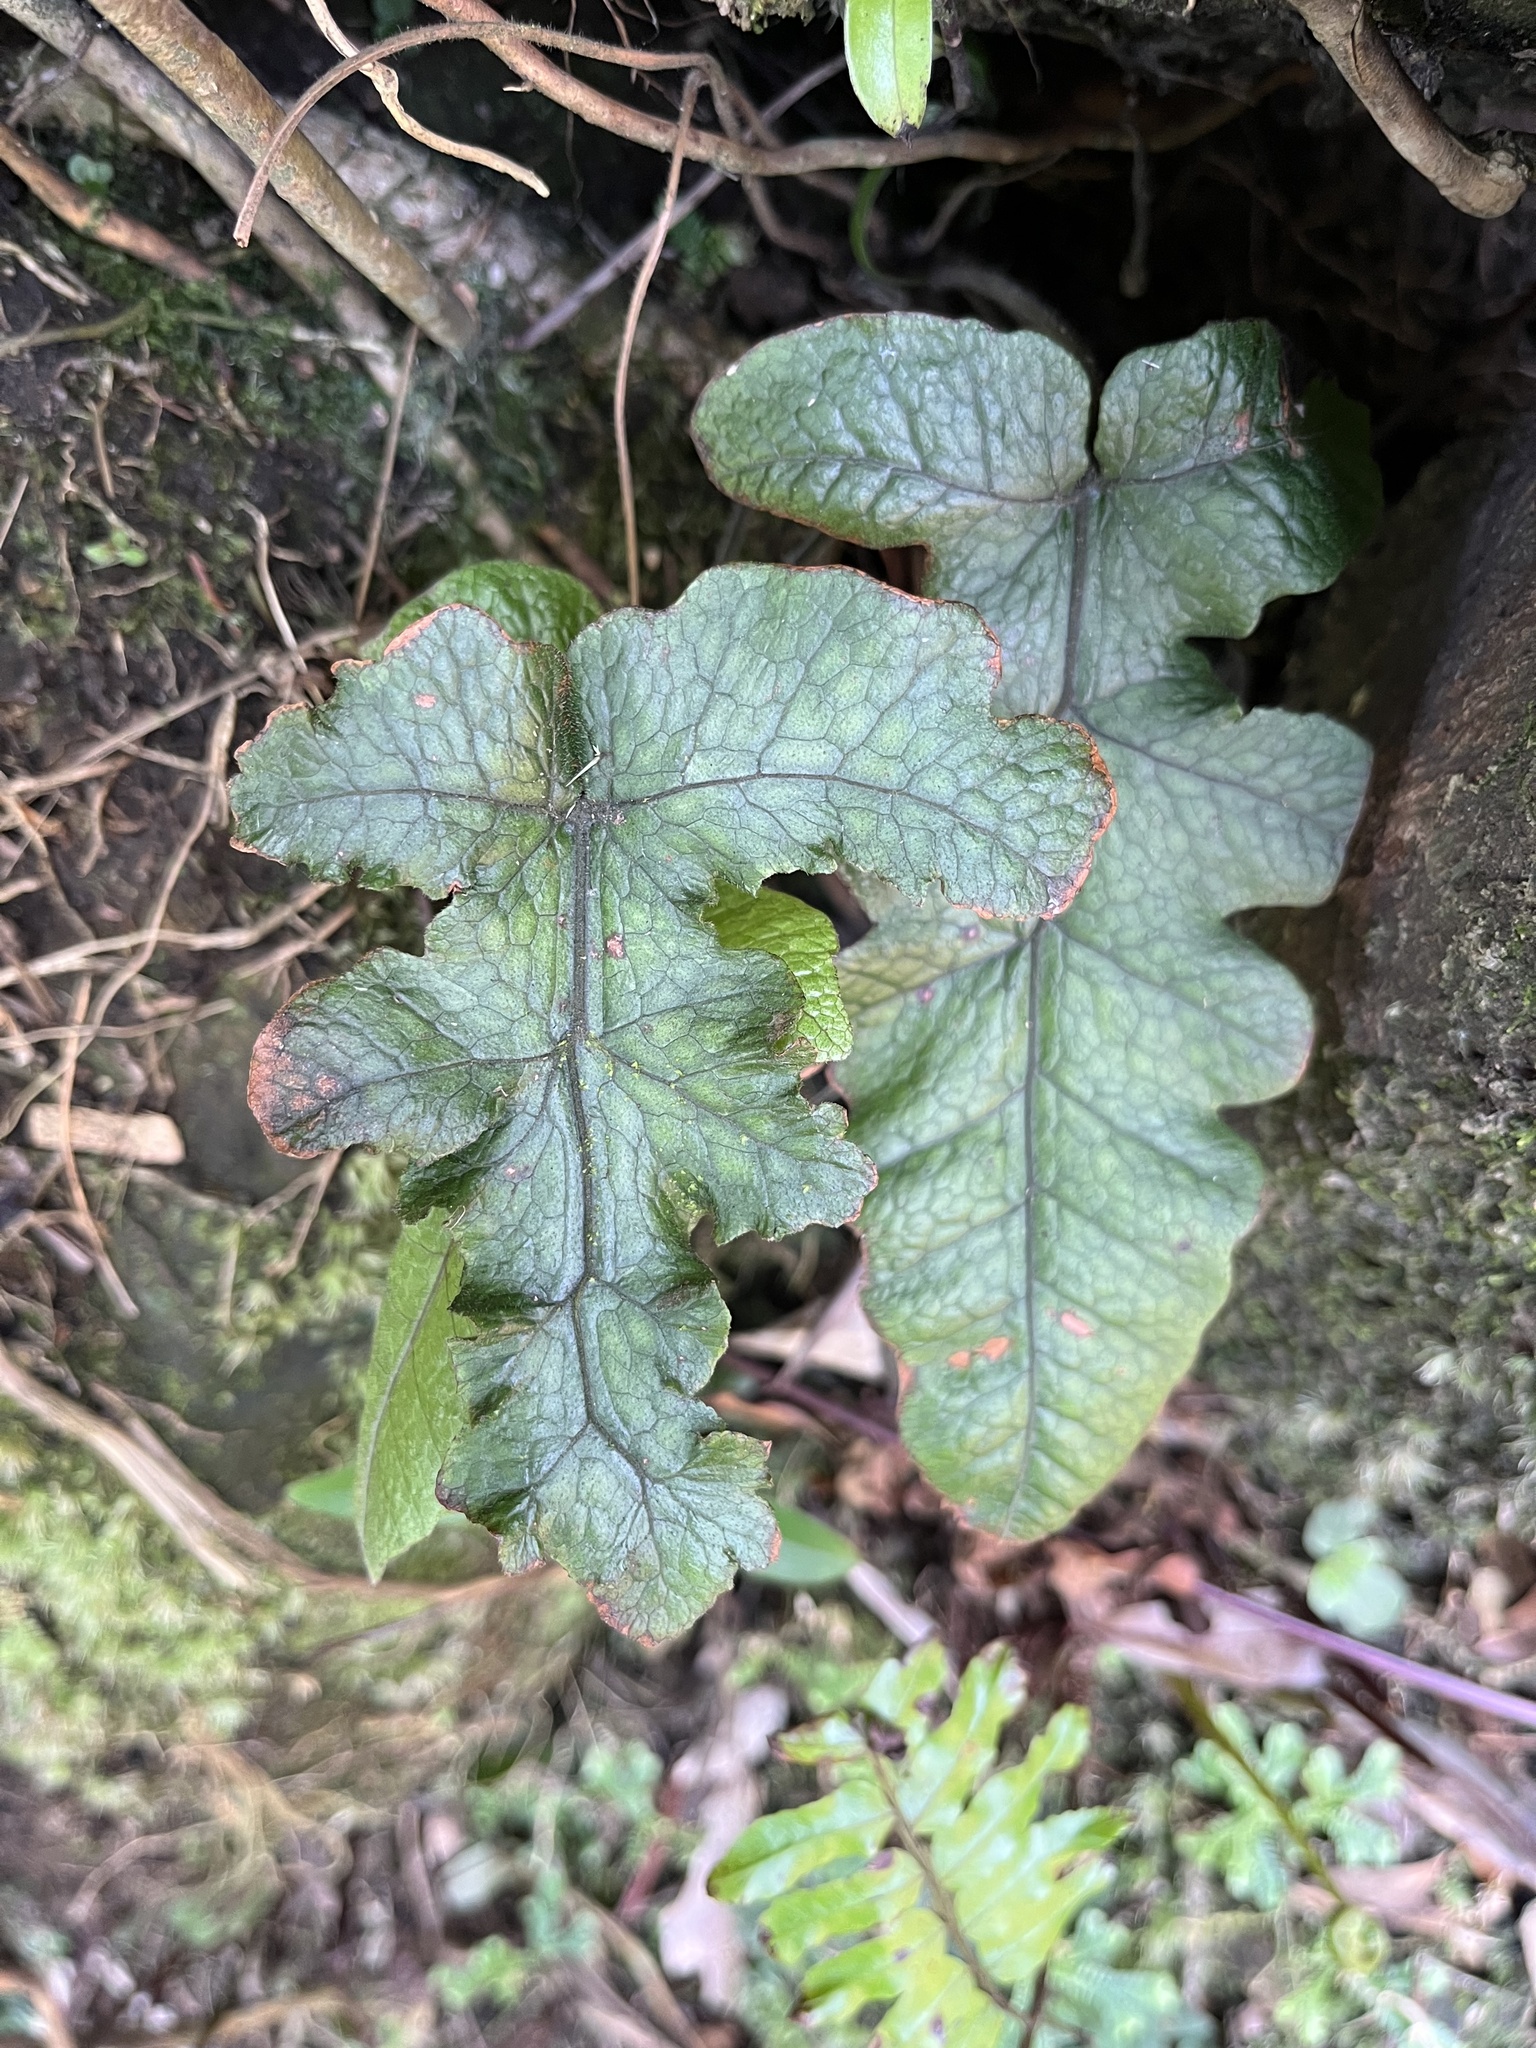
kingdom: Plantae
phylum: Tracheophyta
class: Polypodiopsida
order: Polypodiales
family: Thelypteridaceae
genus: Stegnogramma
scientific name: Stegnogramma wilfordii
